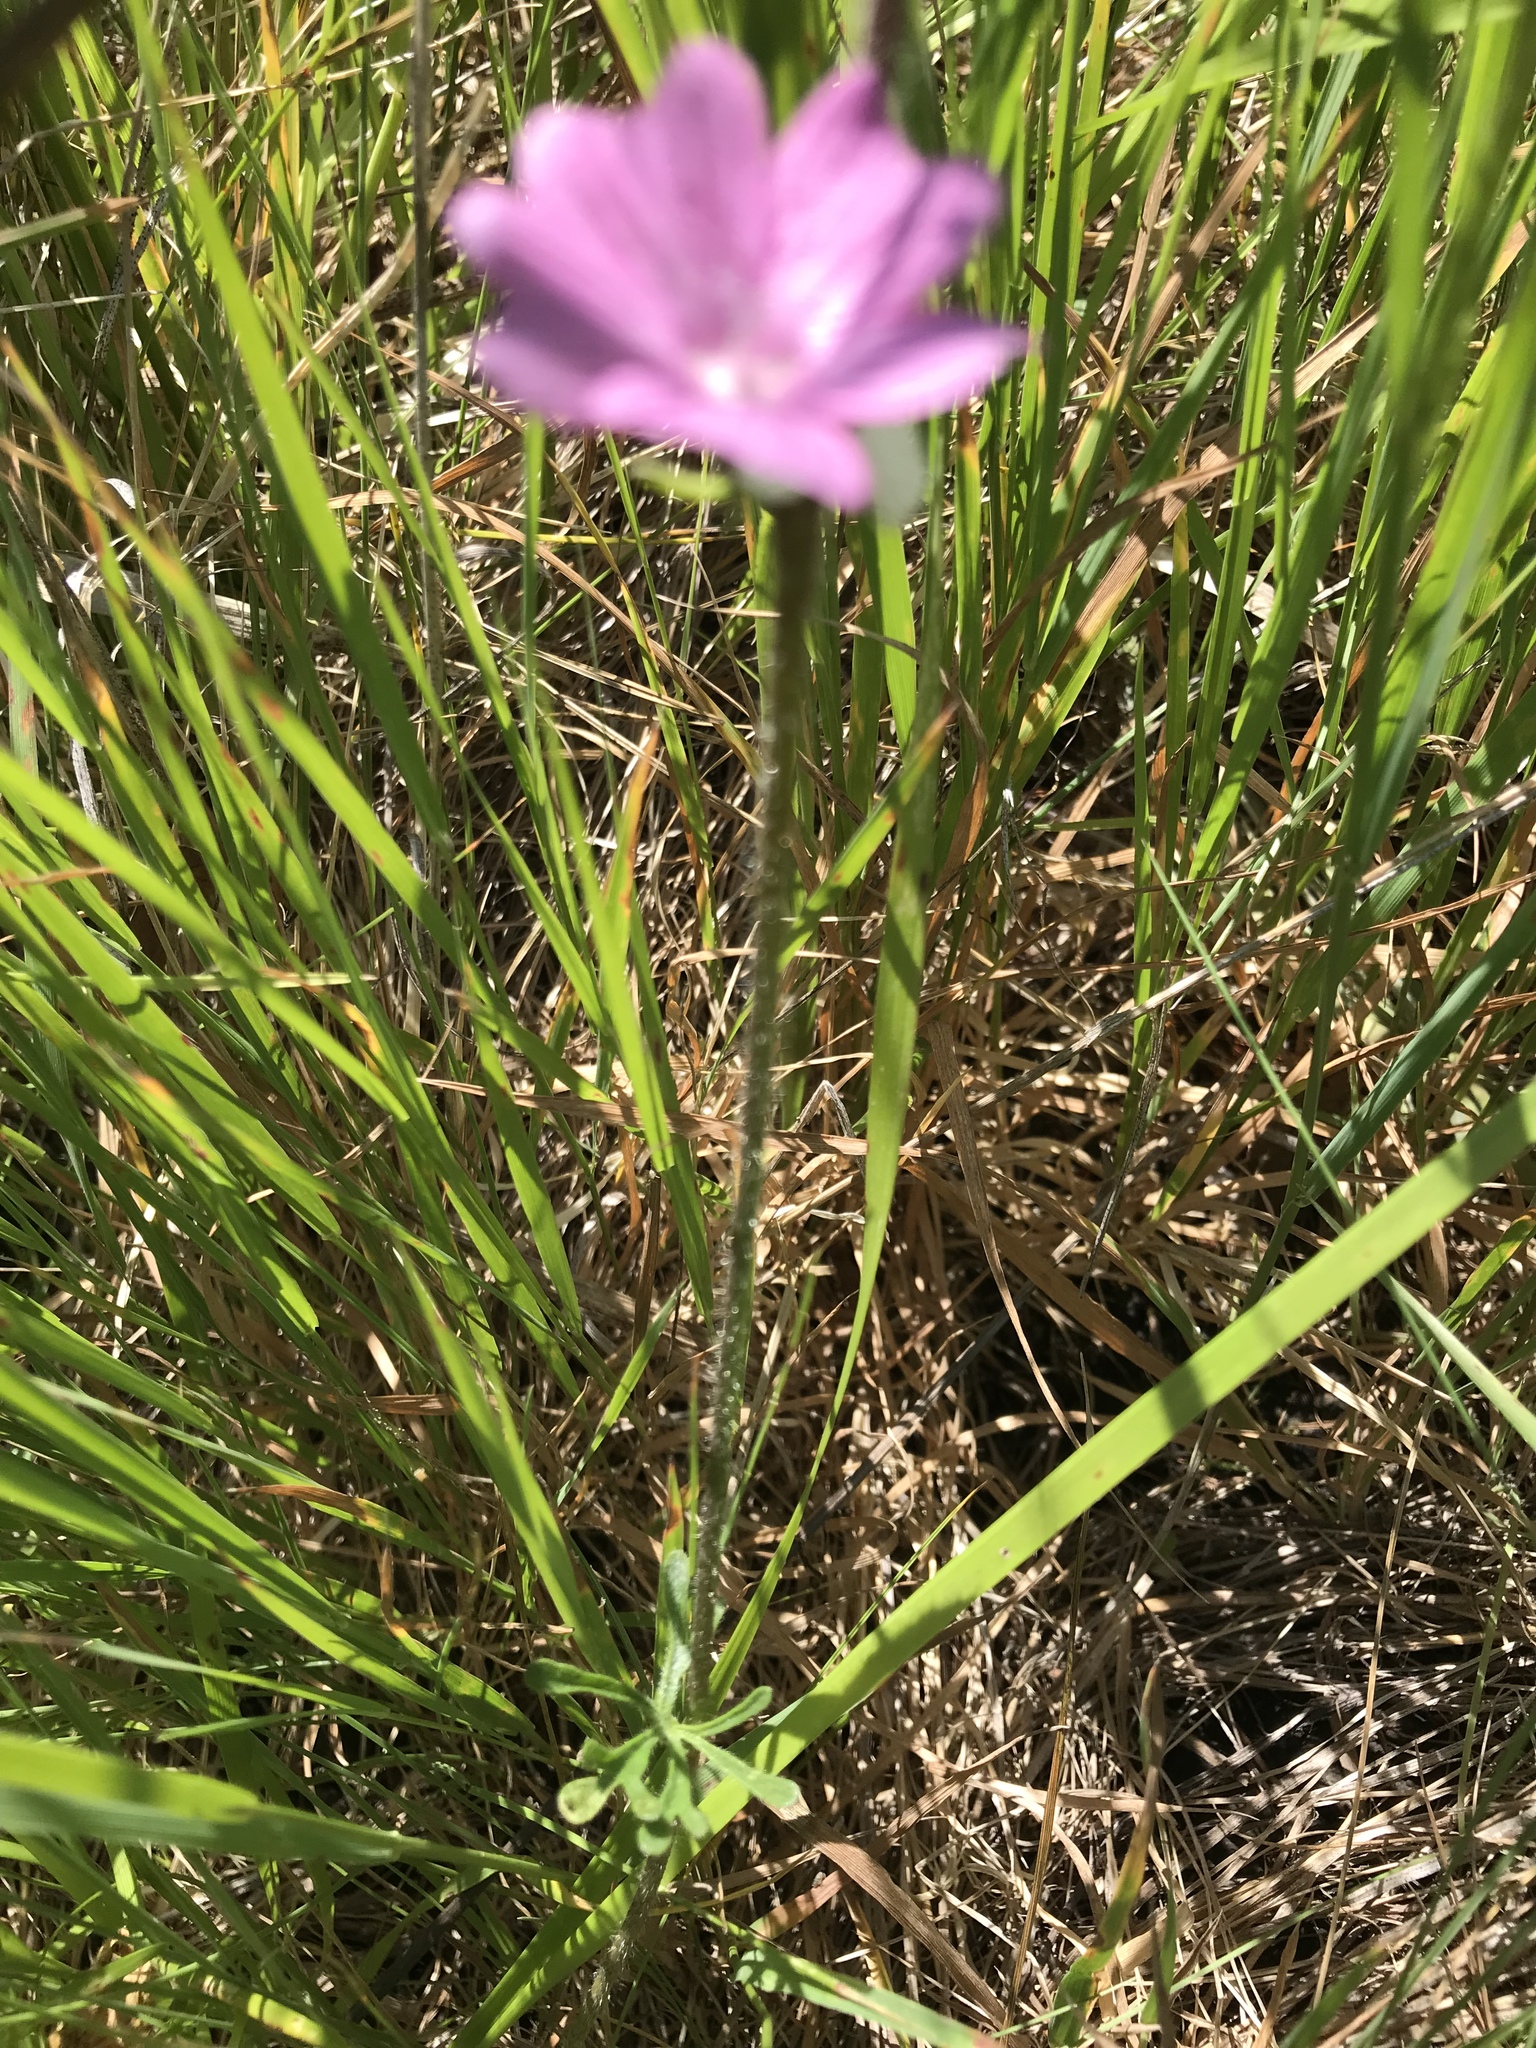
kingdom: Plantae
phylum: Tracheophyta
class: Magnoliopsida
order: Malvales
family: Malvaceae
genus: Sidalcea
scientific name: Sidalcea malviflora
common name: Greek mallow
